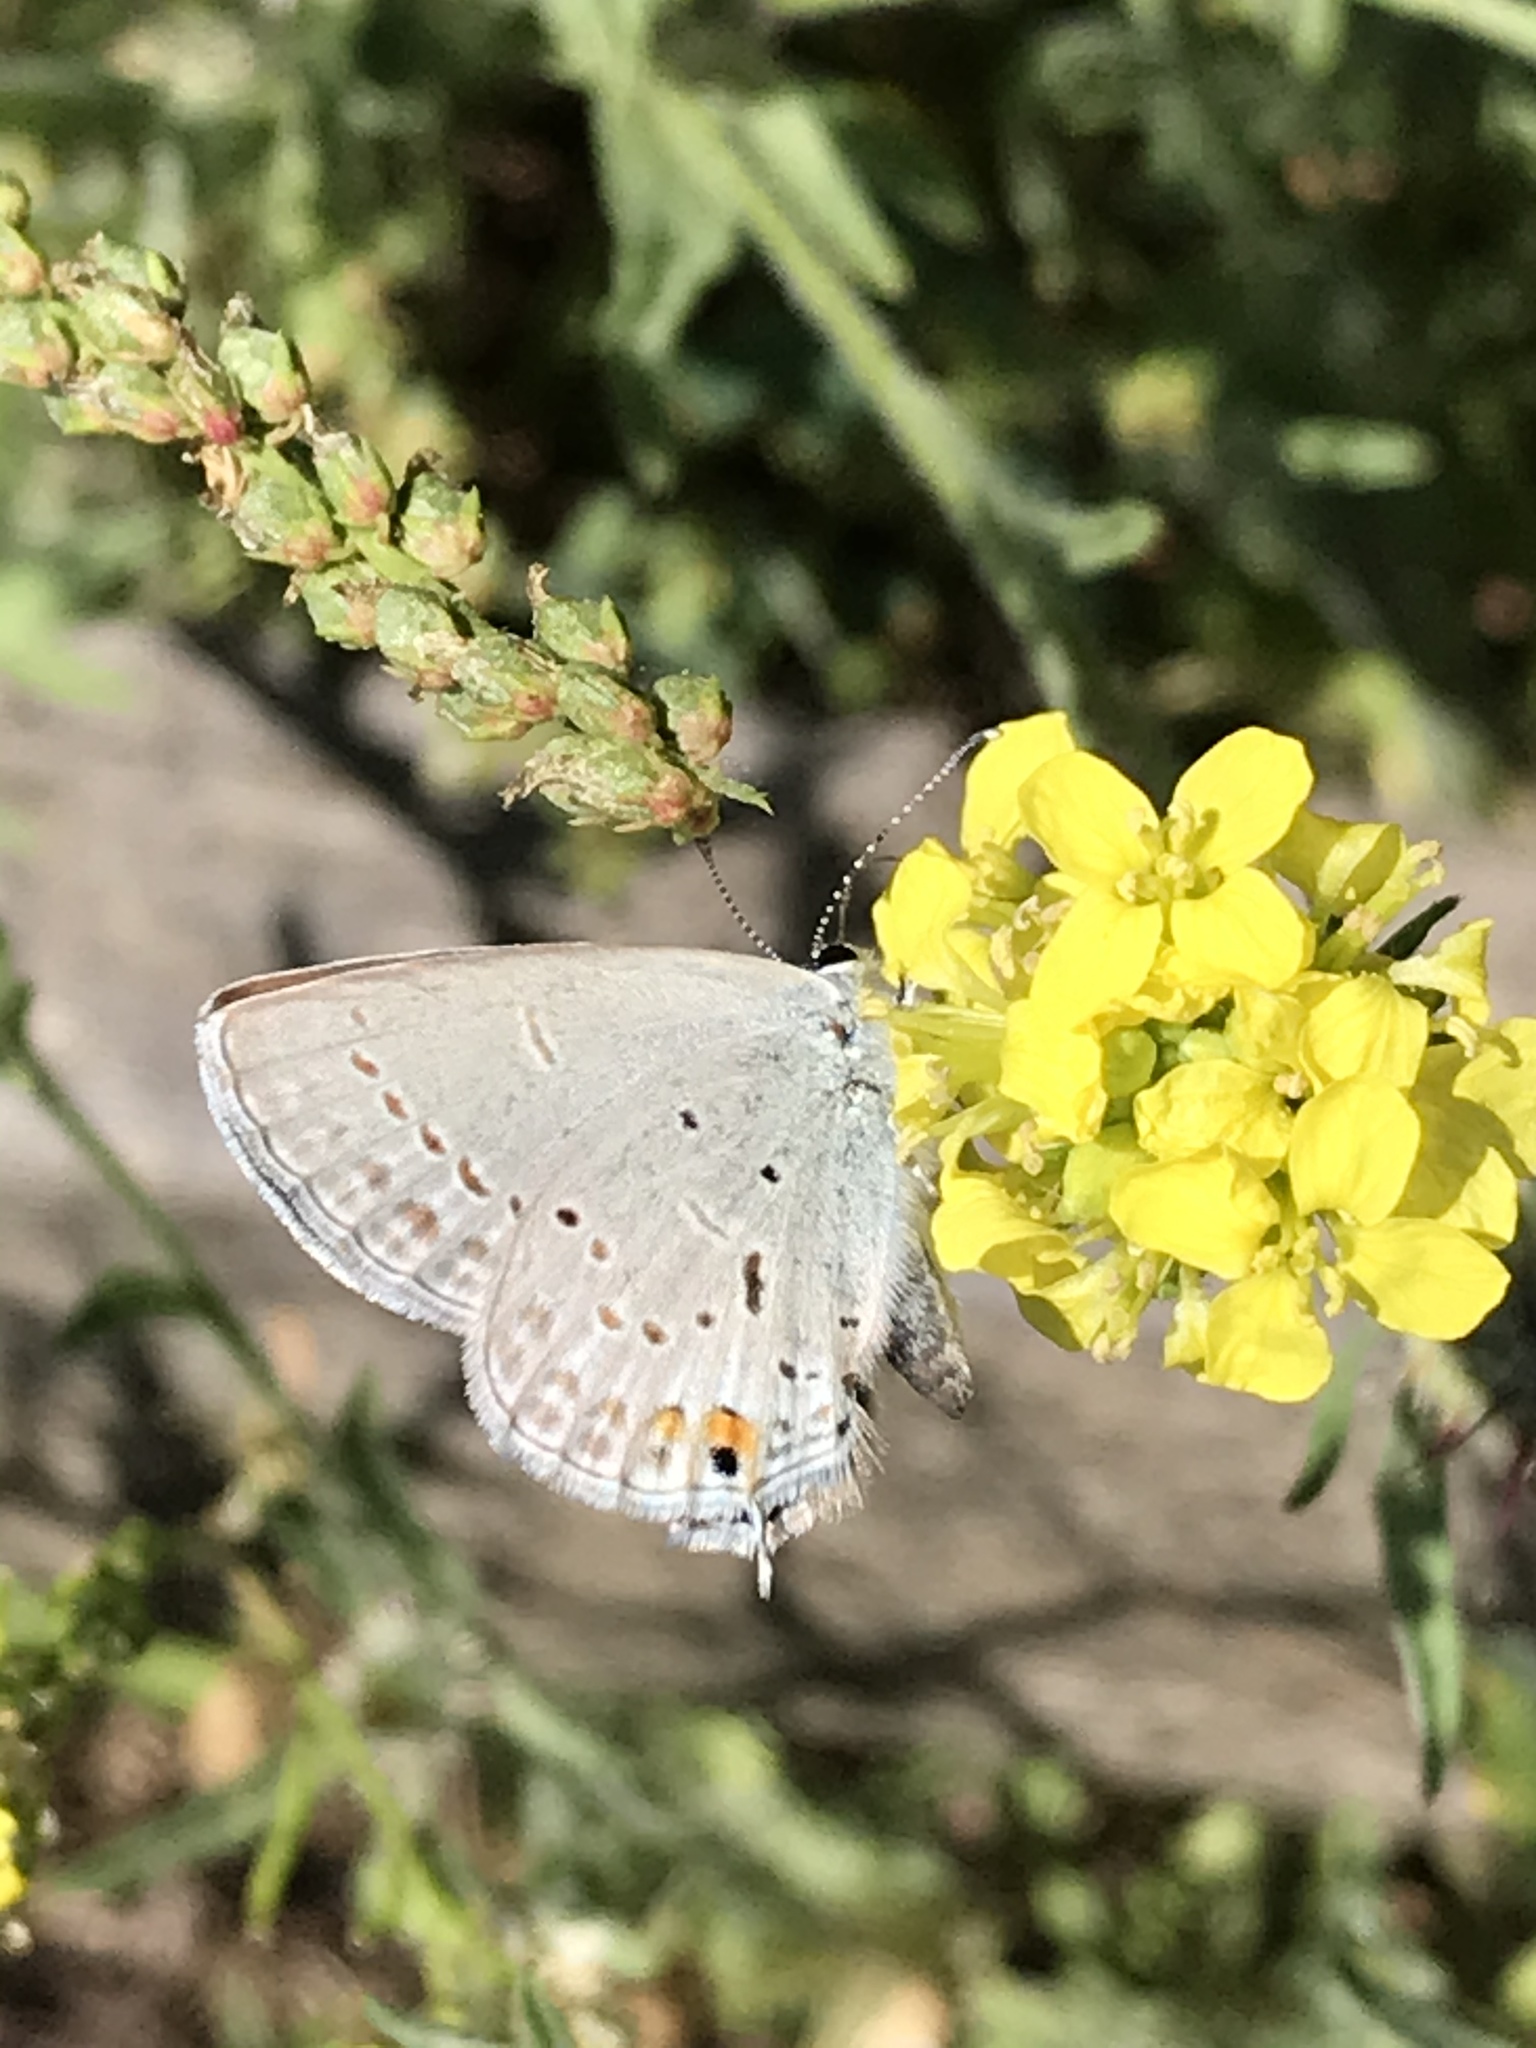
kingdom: Animalia
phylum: Arthropoda
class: Insecta
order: Lepidoptera
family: Lycaenidae
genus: Elkalyce
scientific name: Elkalyce amyntula
